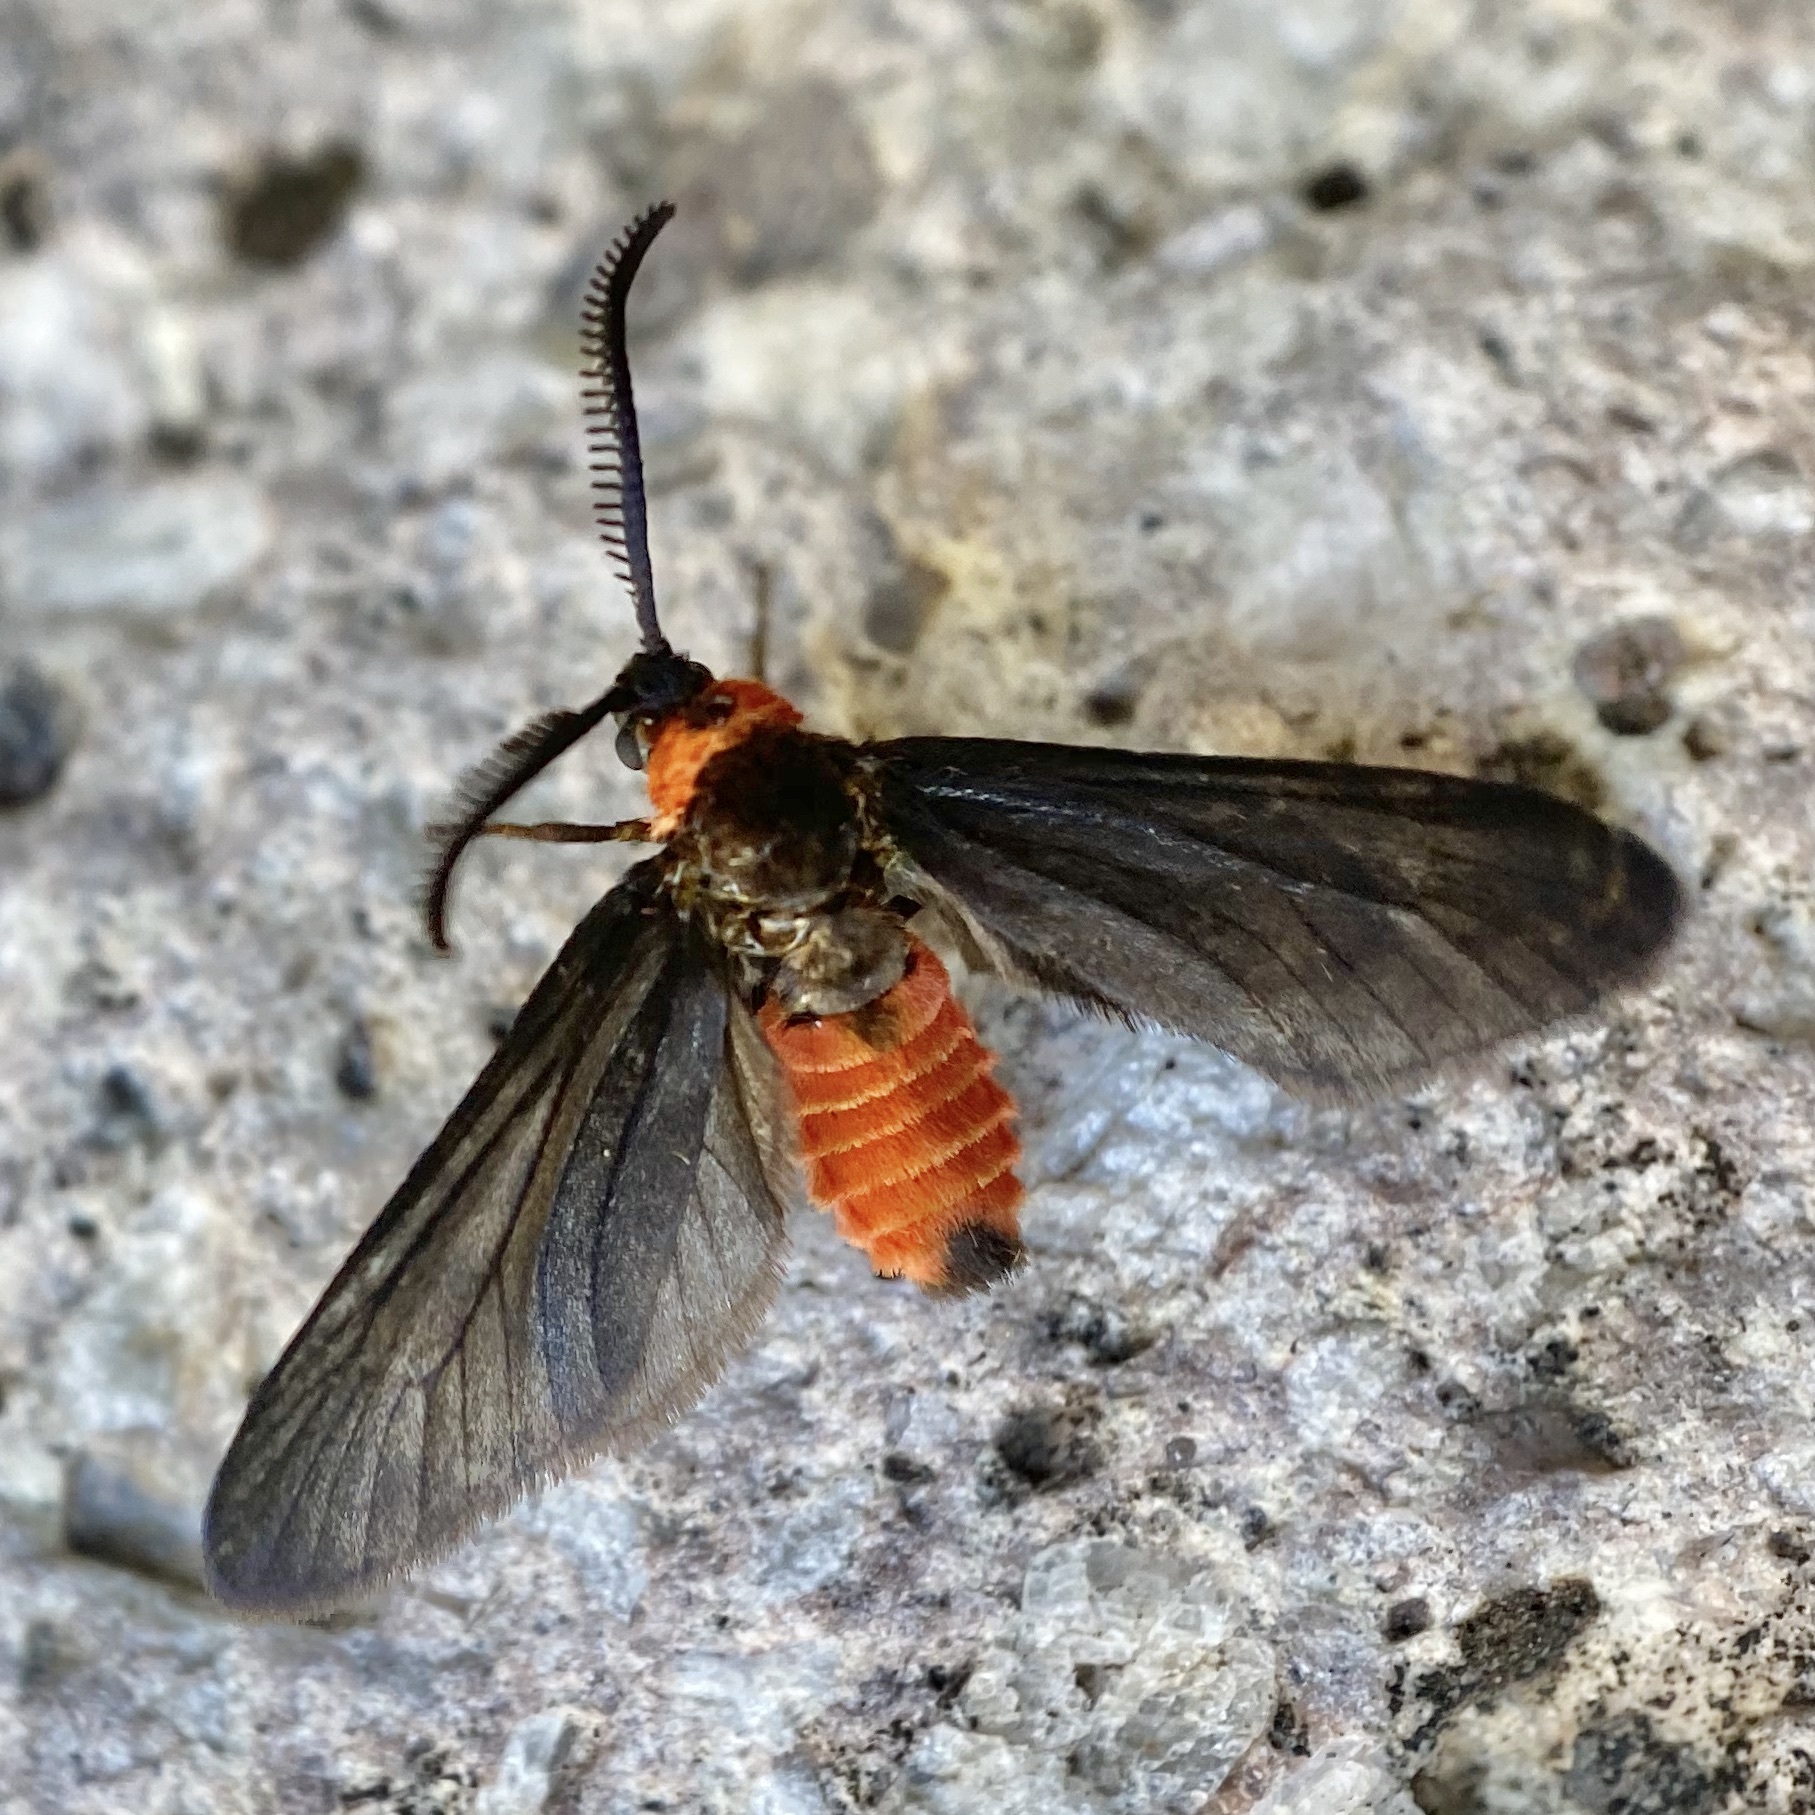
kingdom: Animalia
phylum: Arthropoda
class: Insecta
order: Lepidoptera
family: Zygaenidae
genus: Triprocris
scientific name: Triprocris yampai
